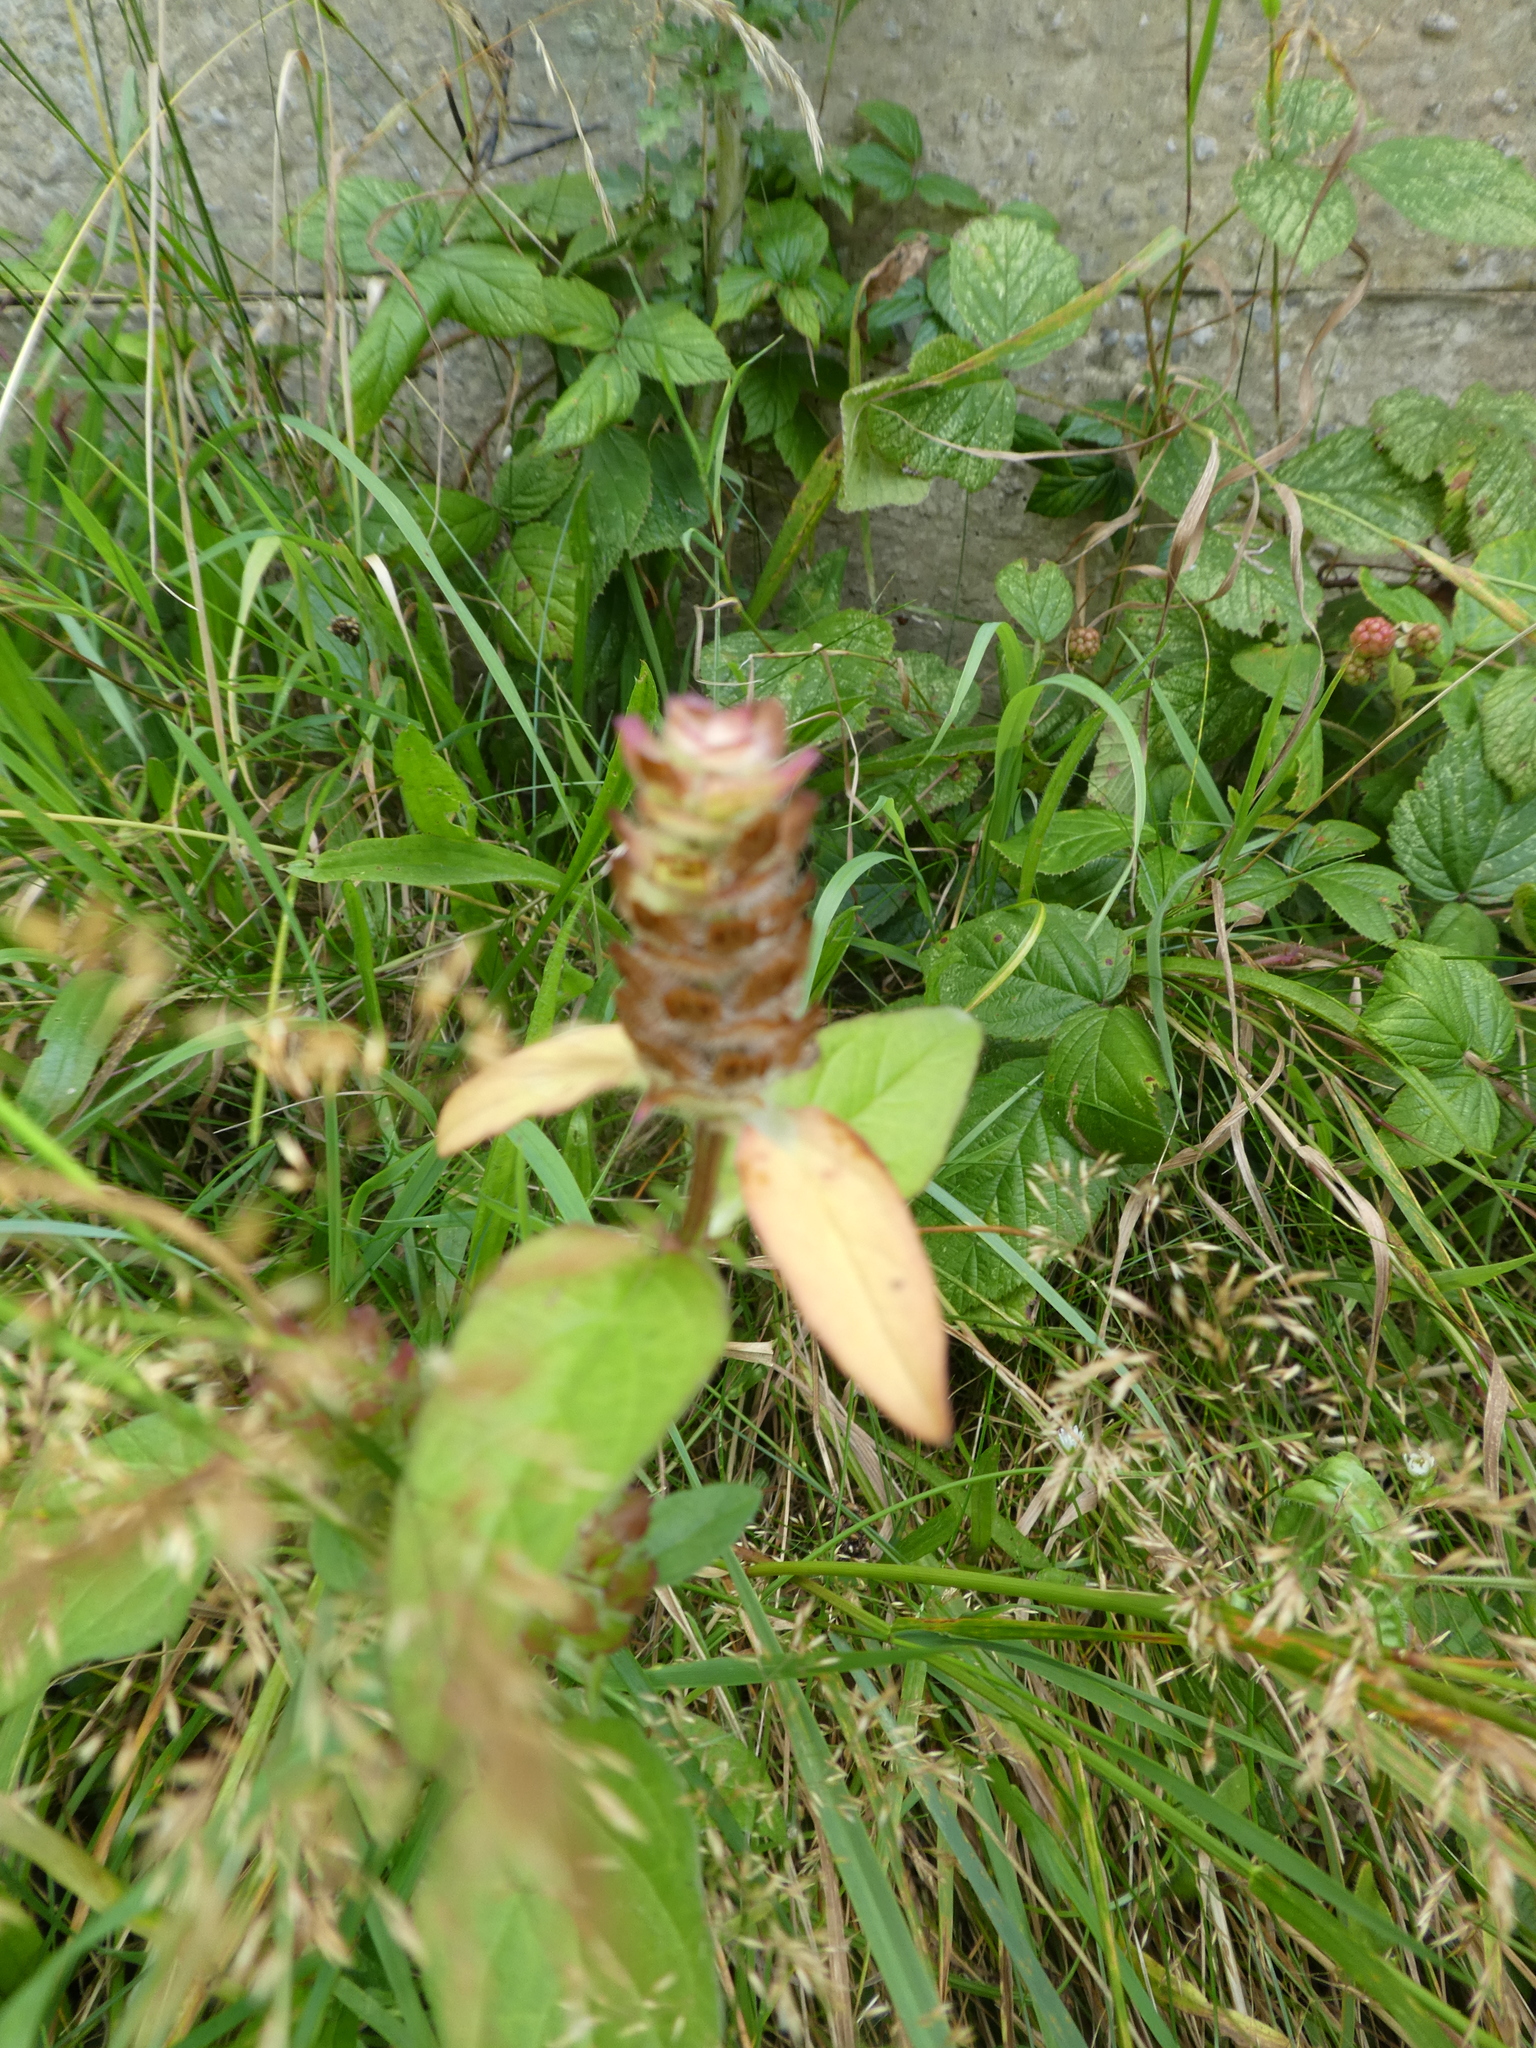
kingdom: Plantae
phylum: Tracheophyta
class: Magnoliopsida
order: Lamiales
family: Lamiaceae
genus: Prunella
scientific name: Prunella vulgaris
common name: Heal-all
